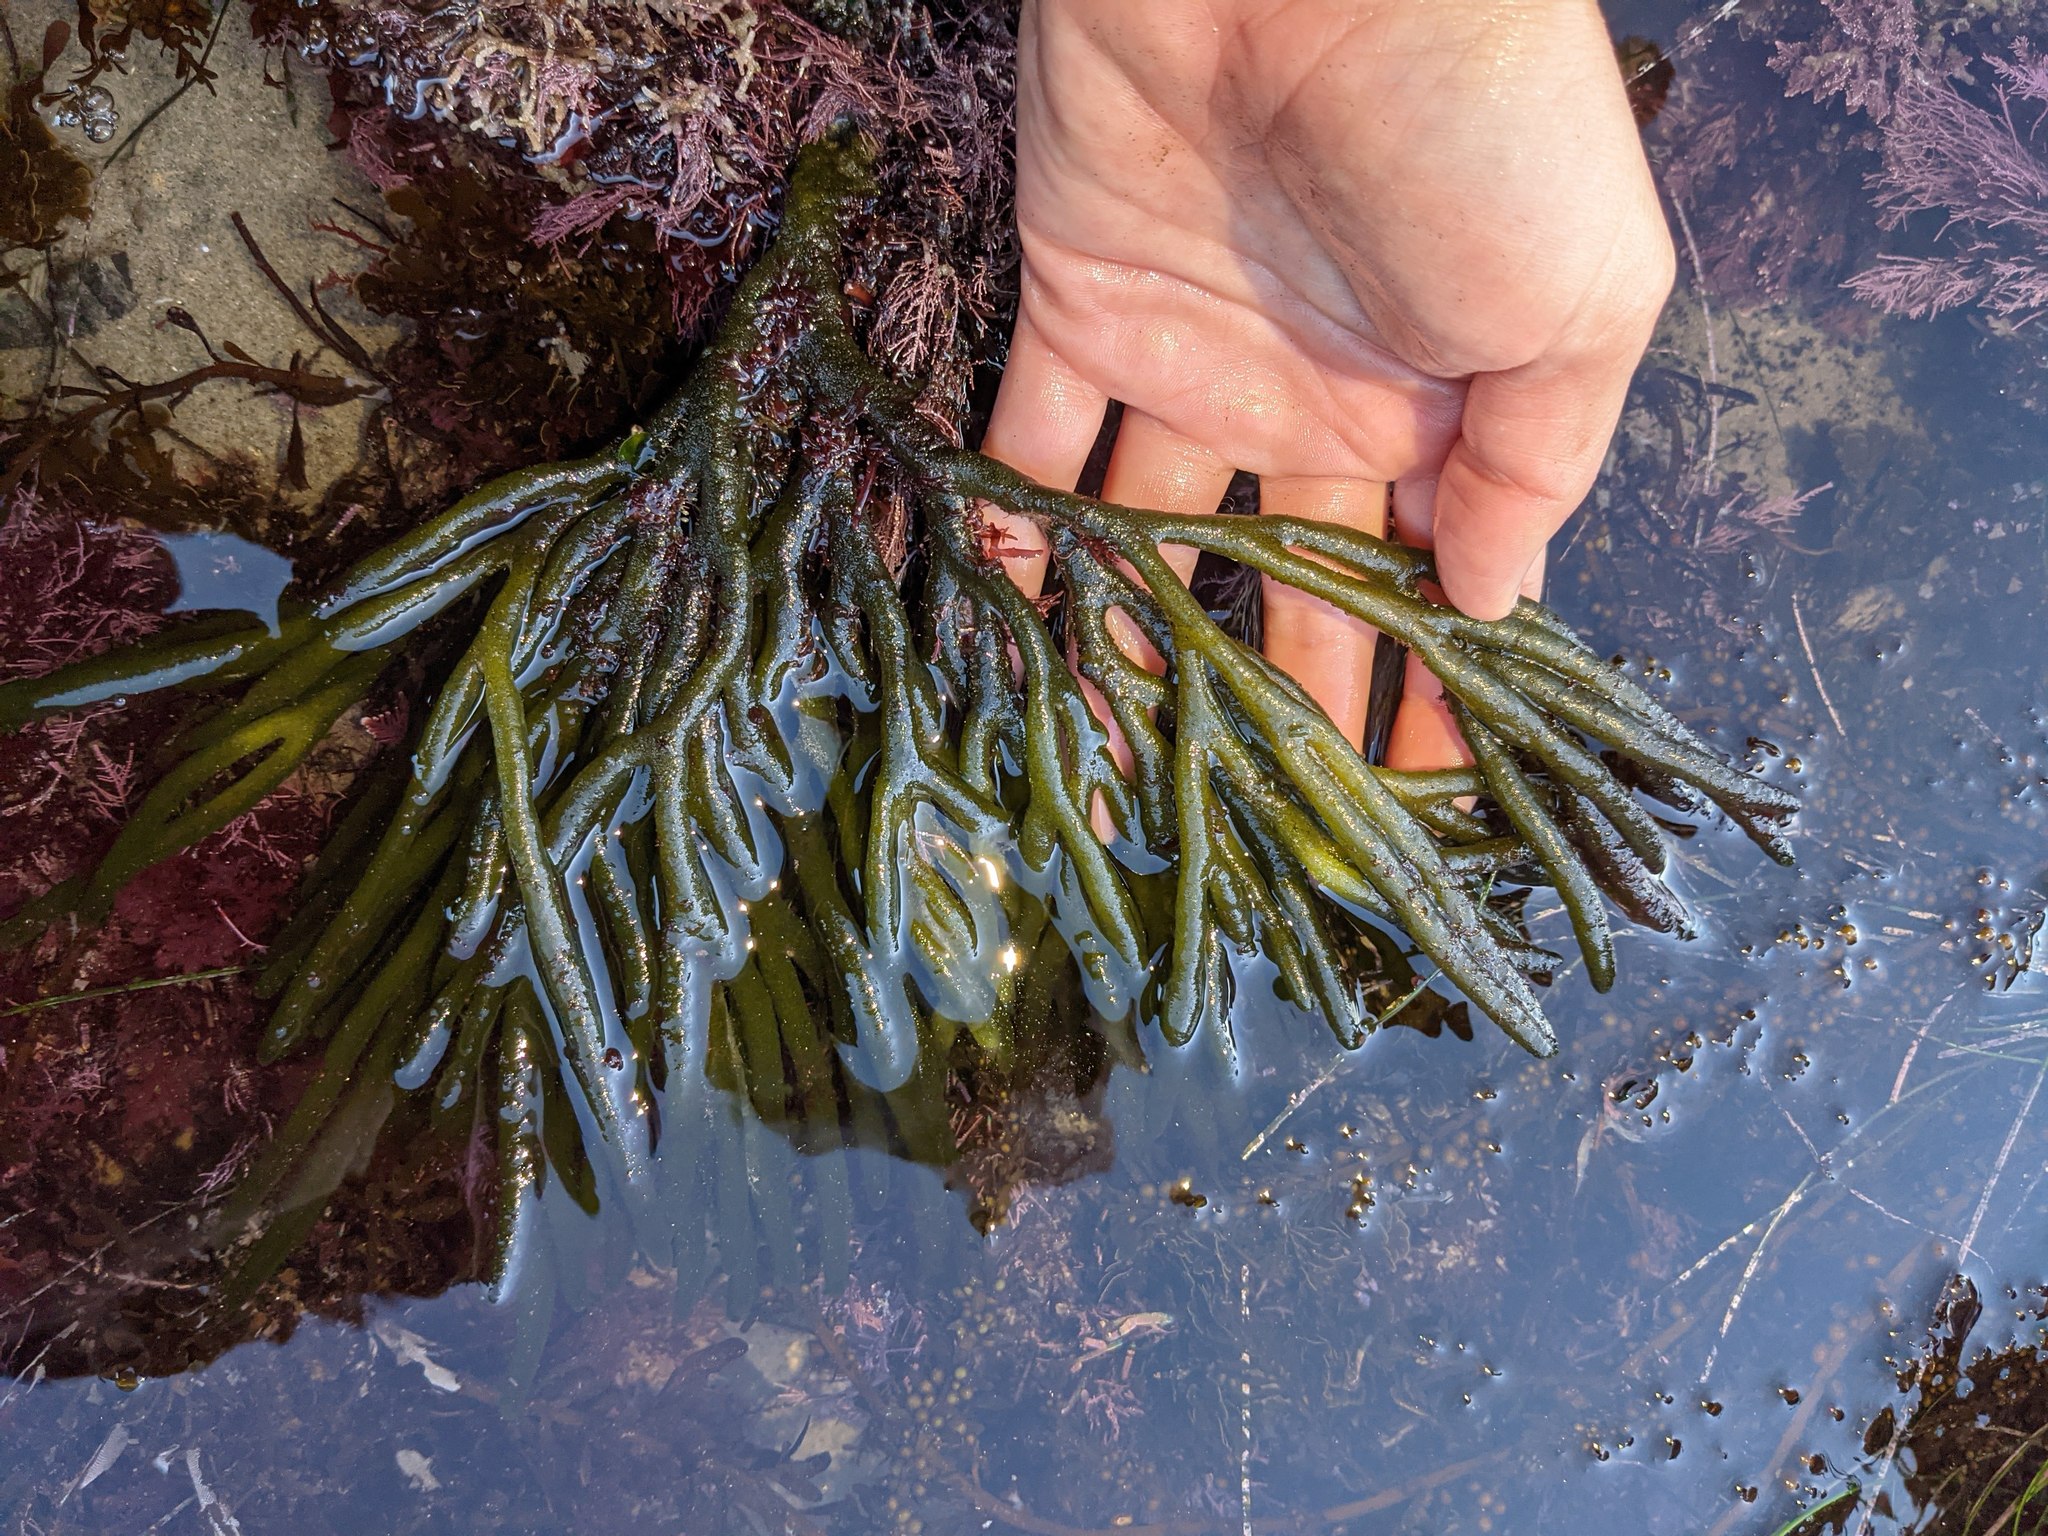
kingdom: Plantae
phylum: Chlorophyta
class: Ulvophyceae
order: Bryopsidales
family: Codiaceae
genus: Codium
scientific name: Codium fragile
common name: Dead man's fingers
